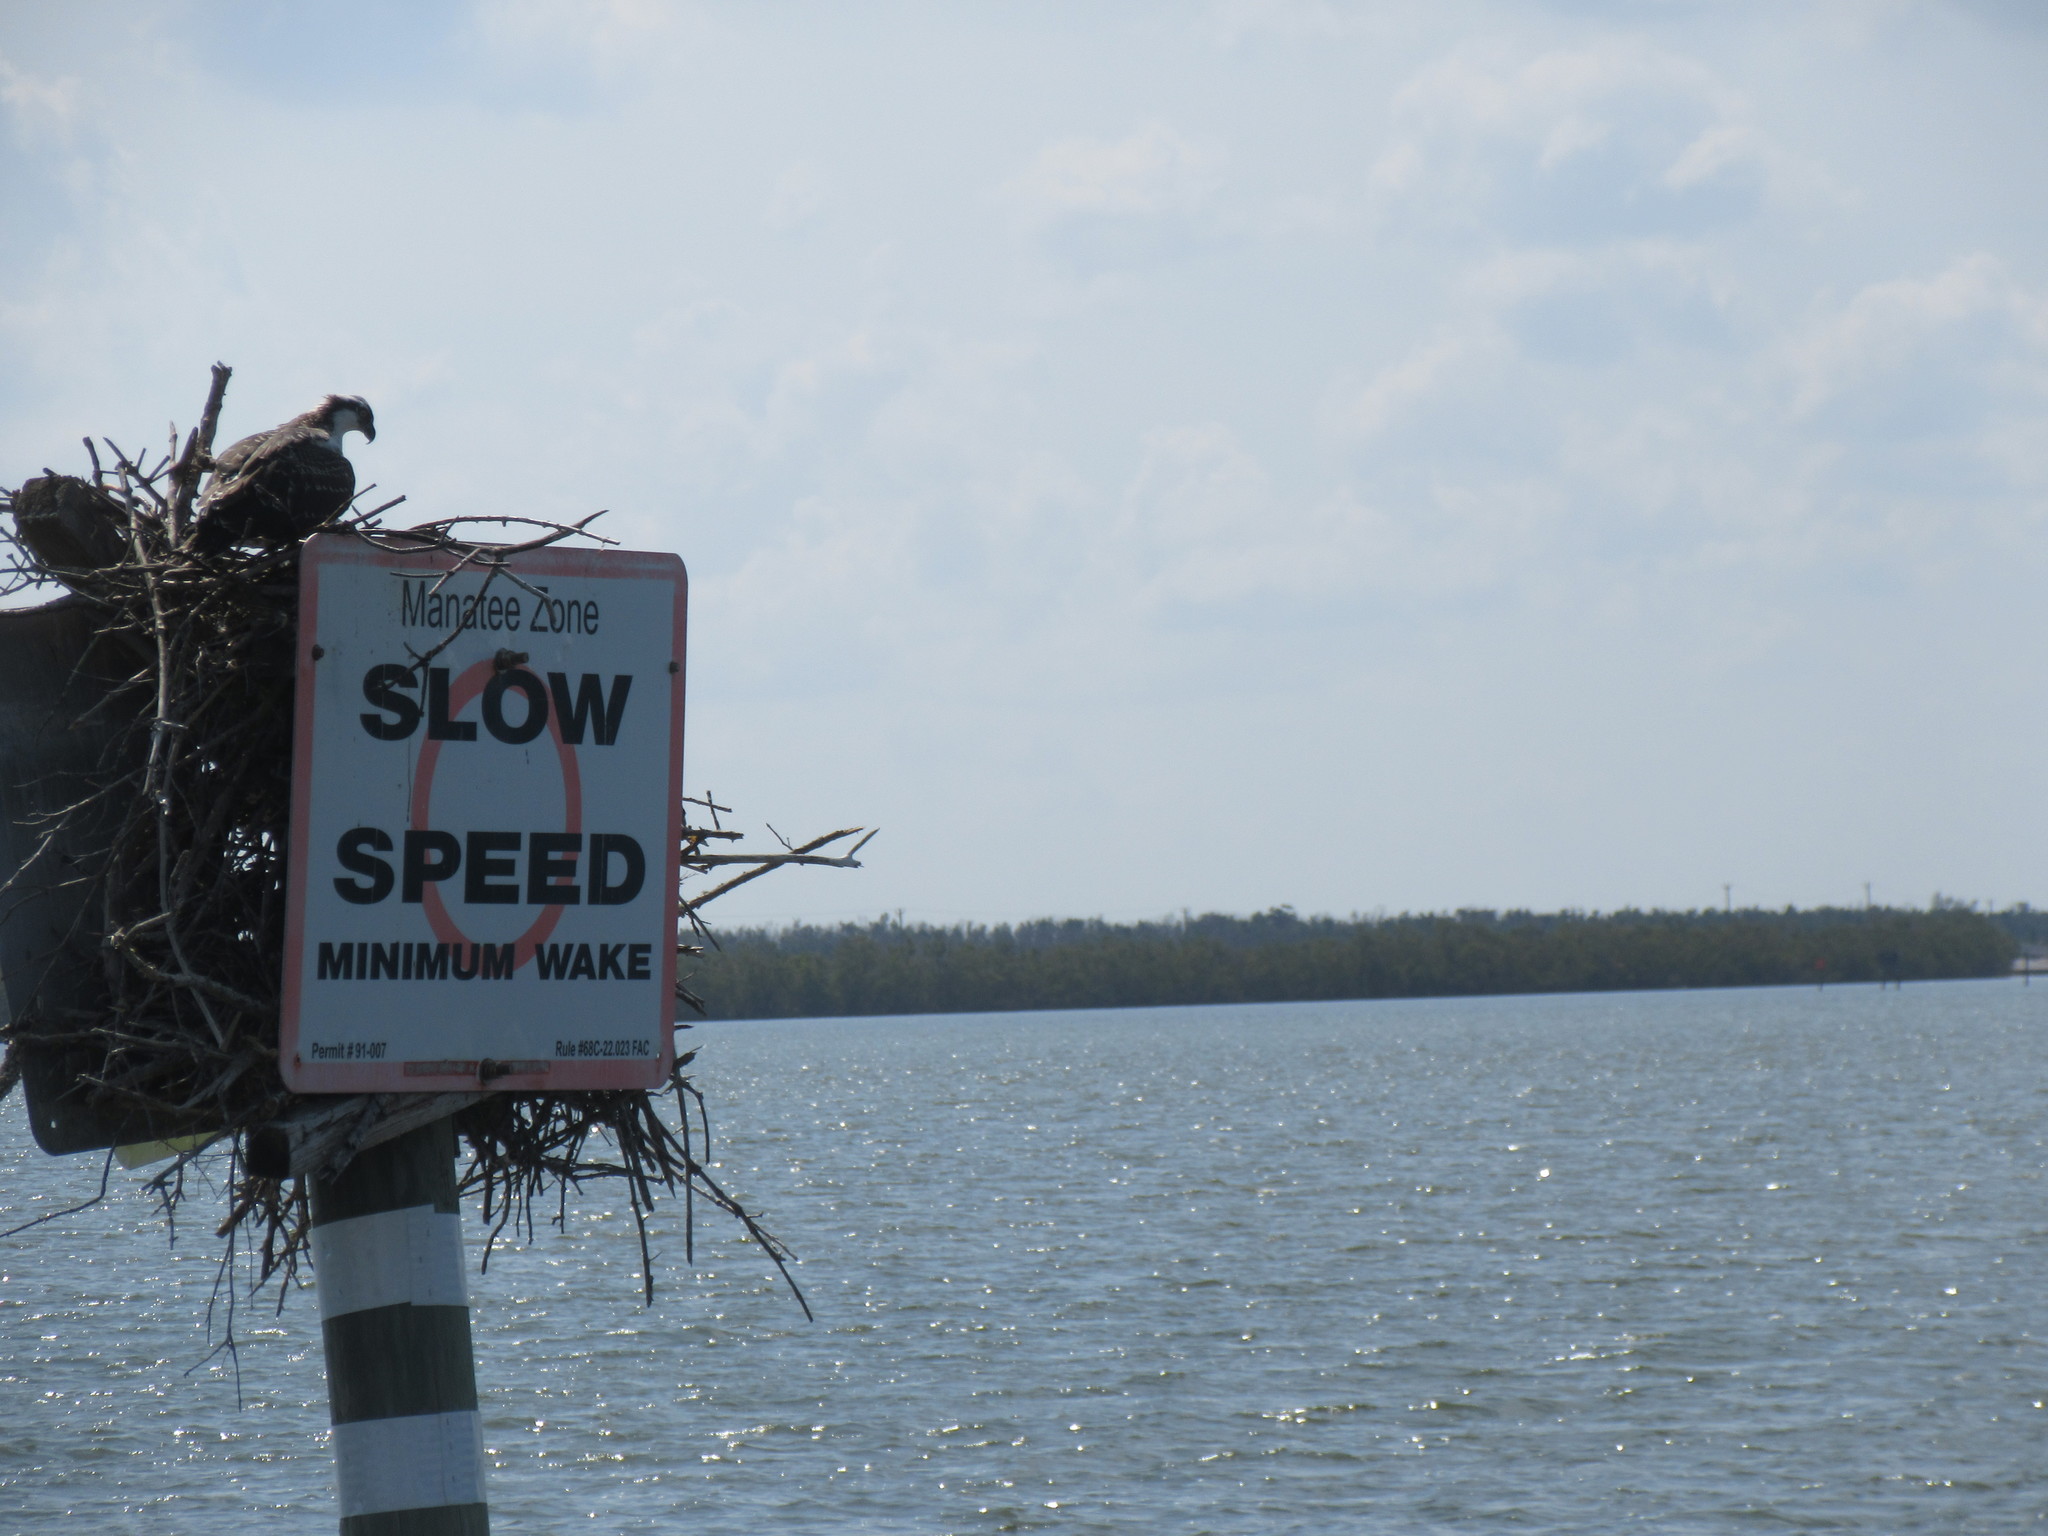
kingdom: Animalia
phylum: Chordata
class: Aves
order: Accipitriformes
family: Pandionidae
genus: Pandion
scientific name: Pandion haliaetus
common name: Osprey
